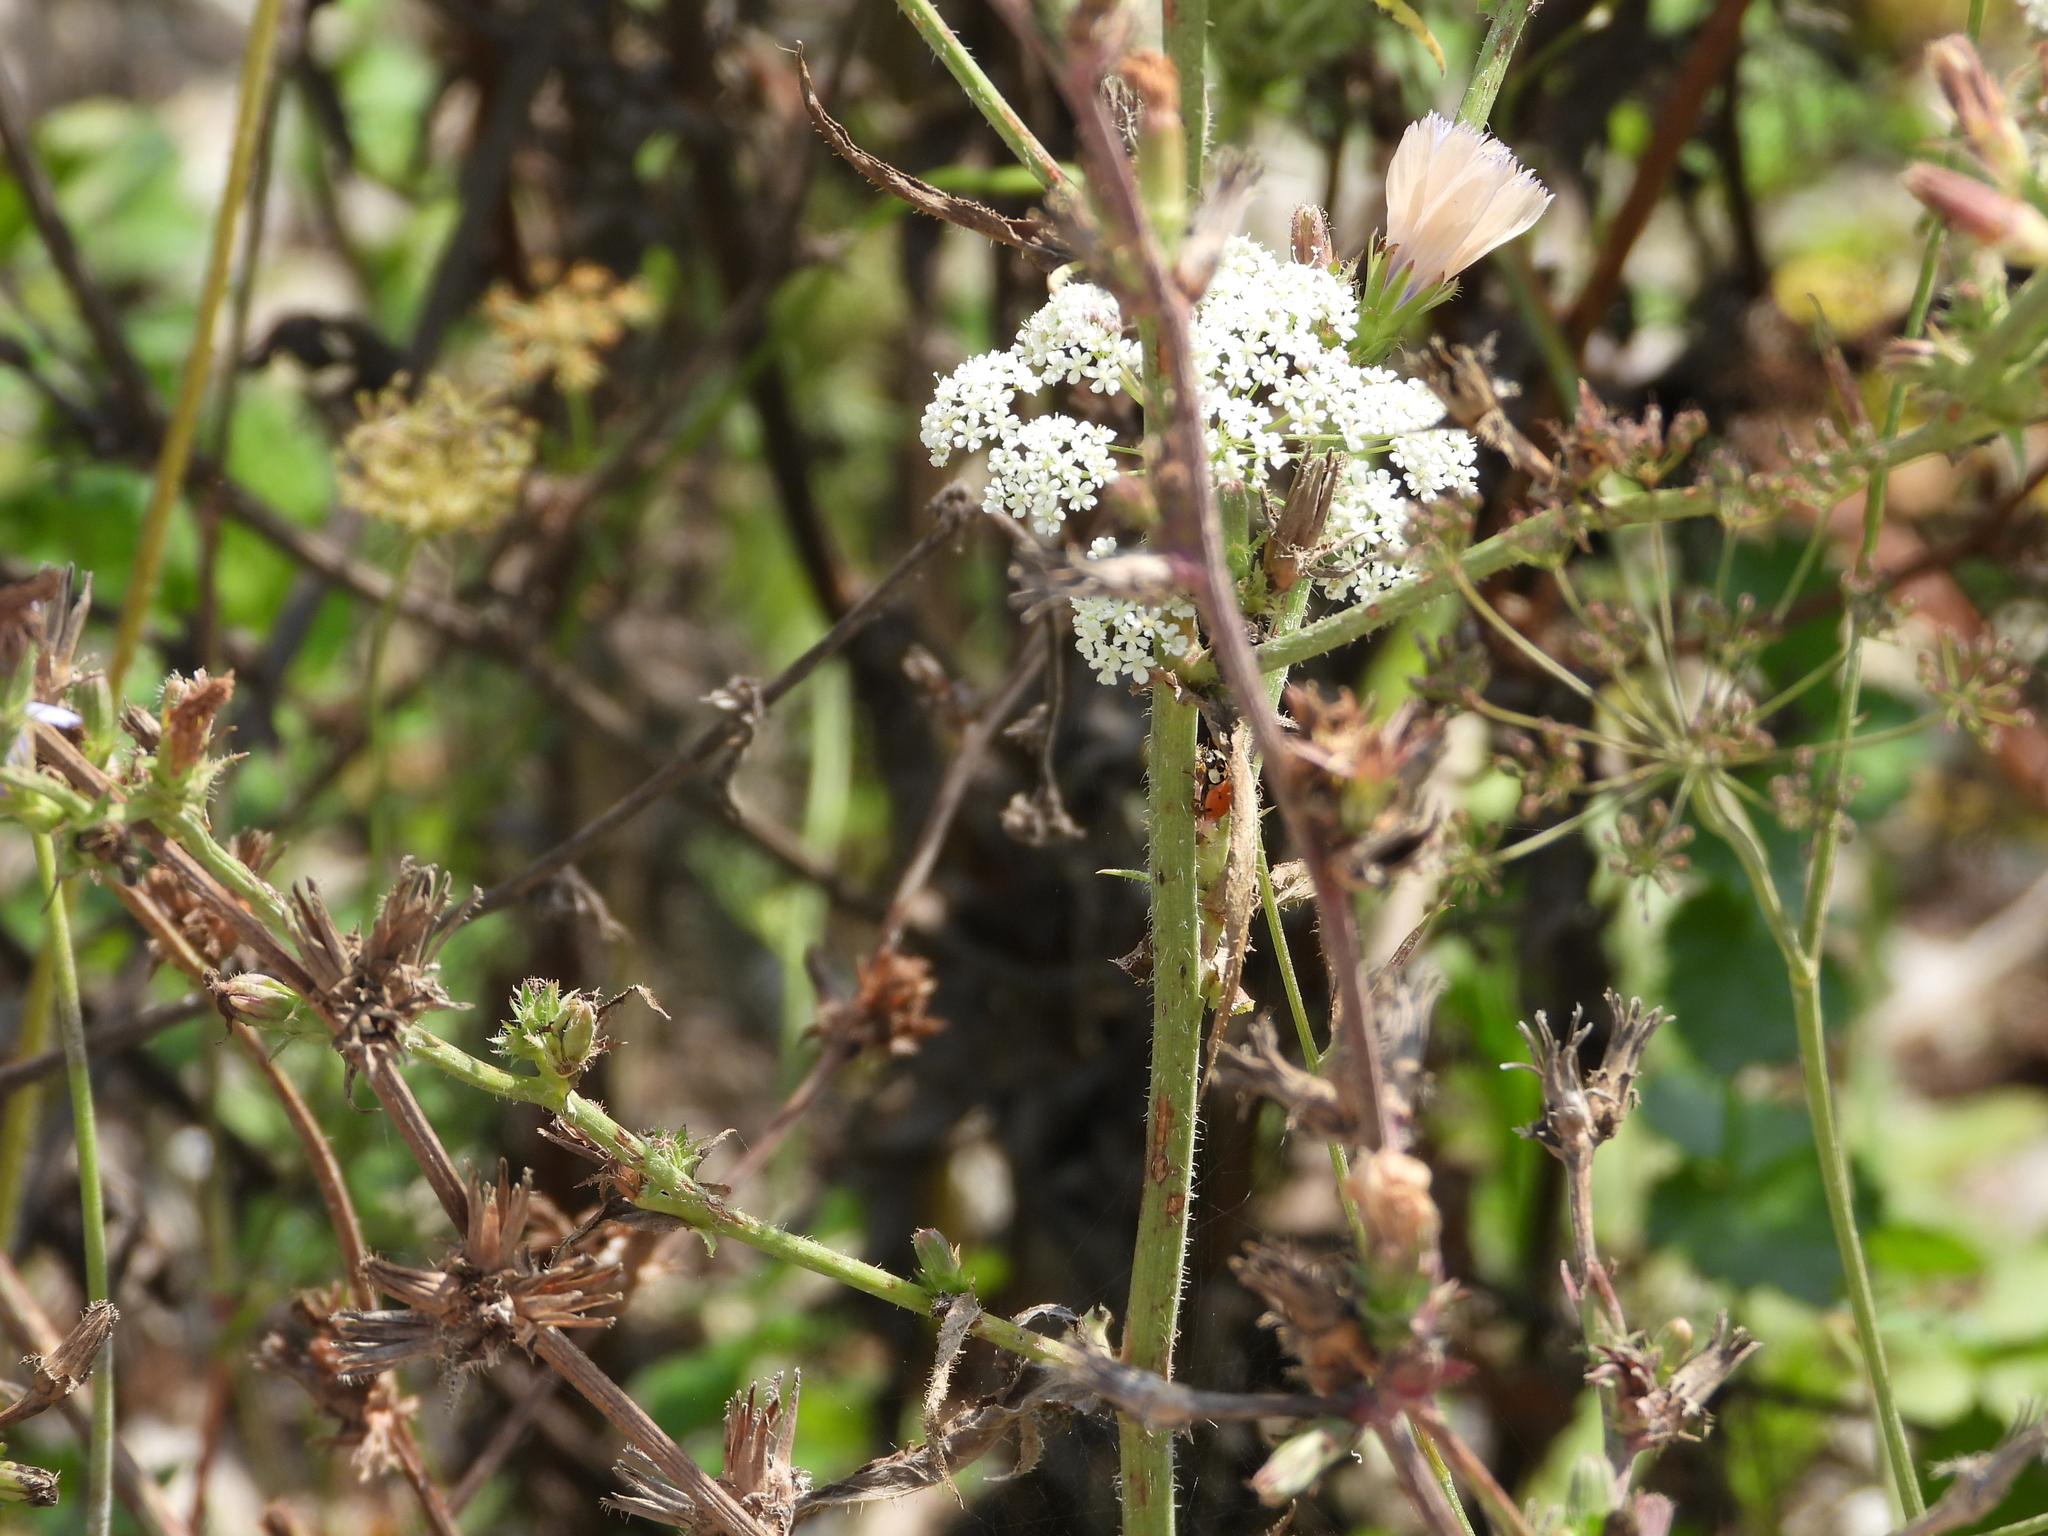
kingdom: Animalia
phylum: Arthropoda
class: Insecta
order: Coleoptera
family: Coccinellidae
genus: Harmonia
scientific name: Harmonia axyridis
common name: Harlequin ladybird
